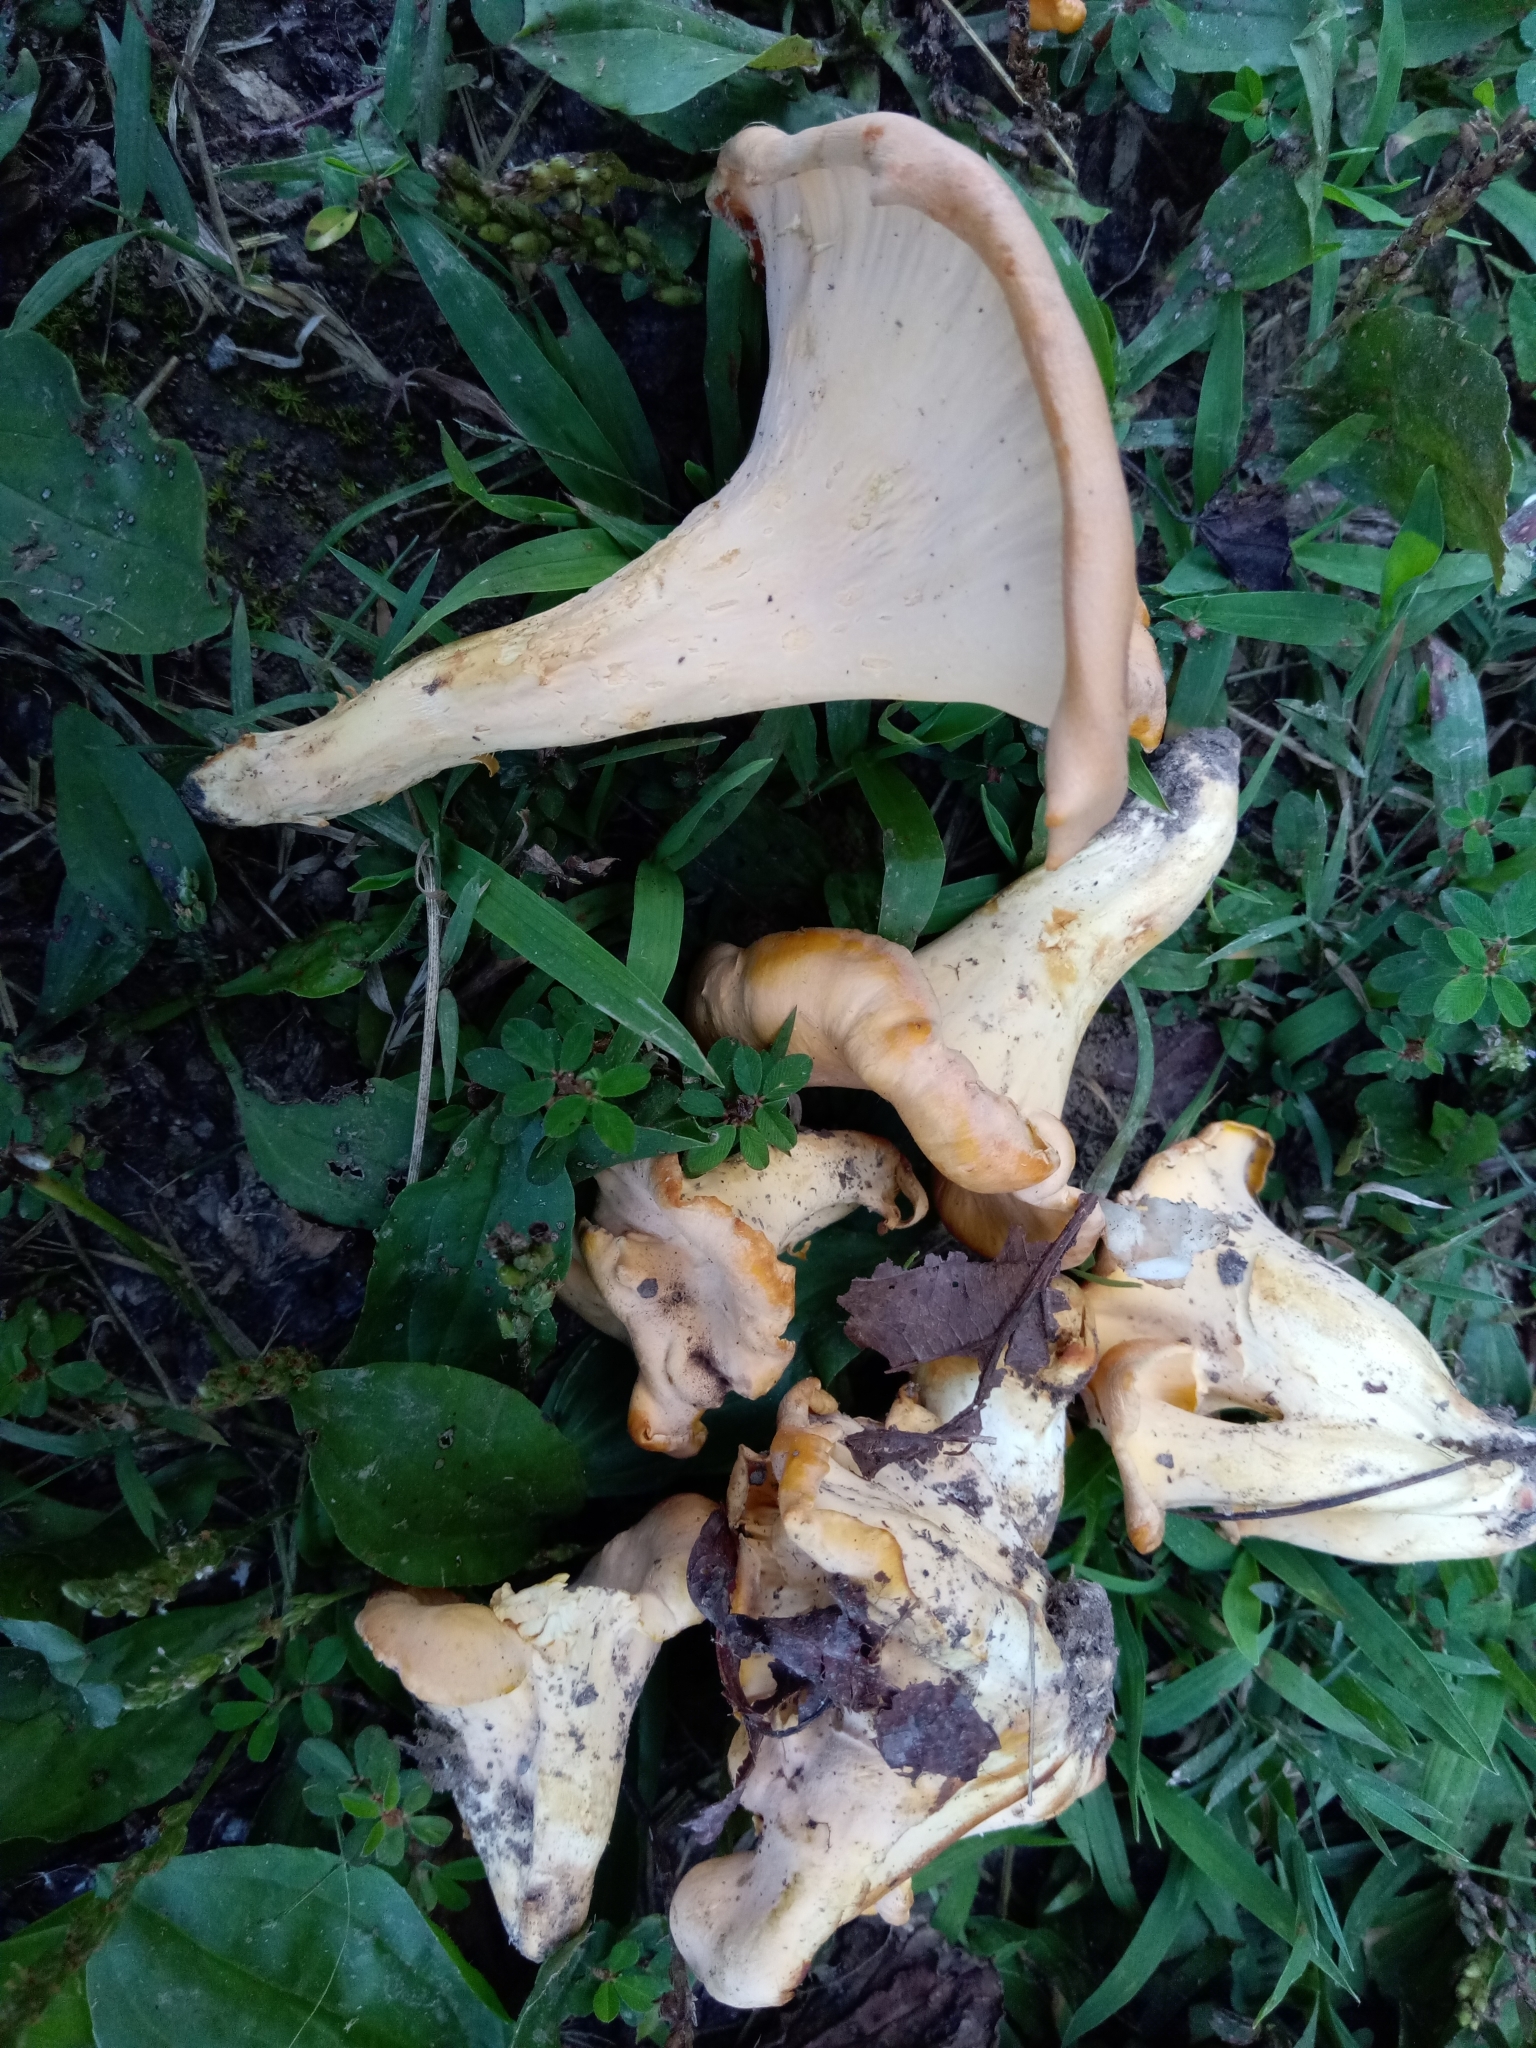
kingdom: Fungi
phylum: Basidiomycota
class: Agaricomycetes
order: Cantharellales
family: Hydnaceae
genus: Cantharellus
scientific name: Cantharellus flavolateritius
